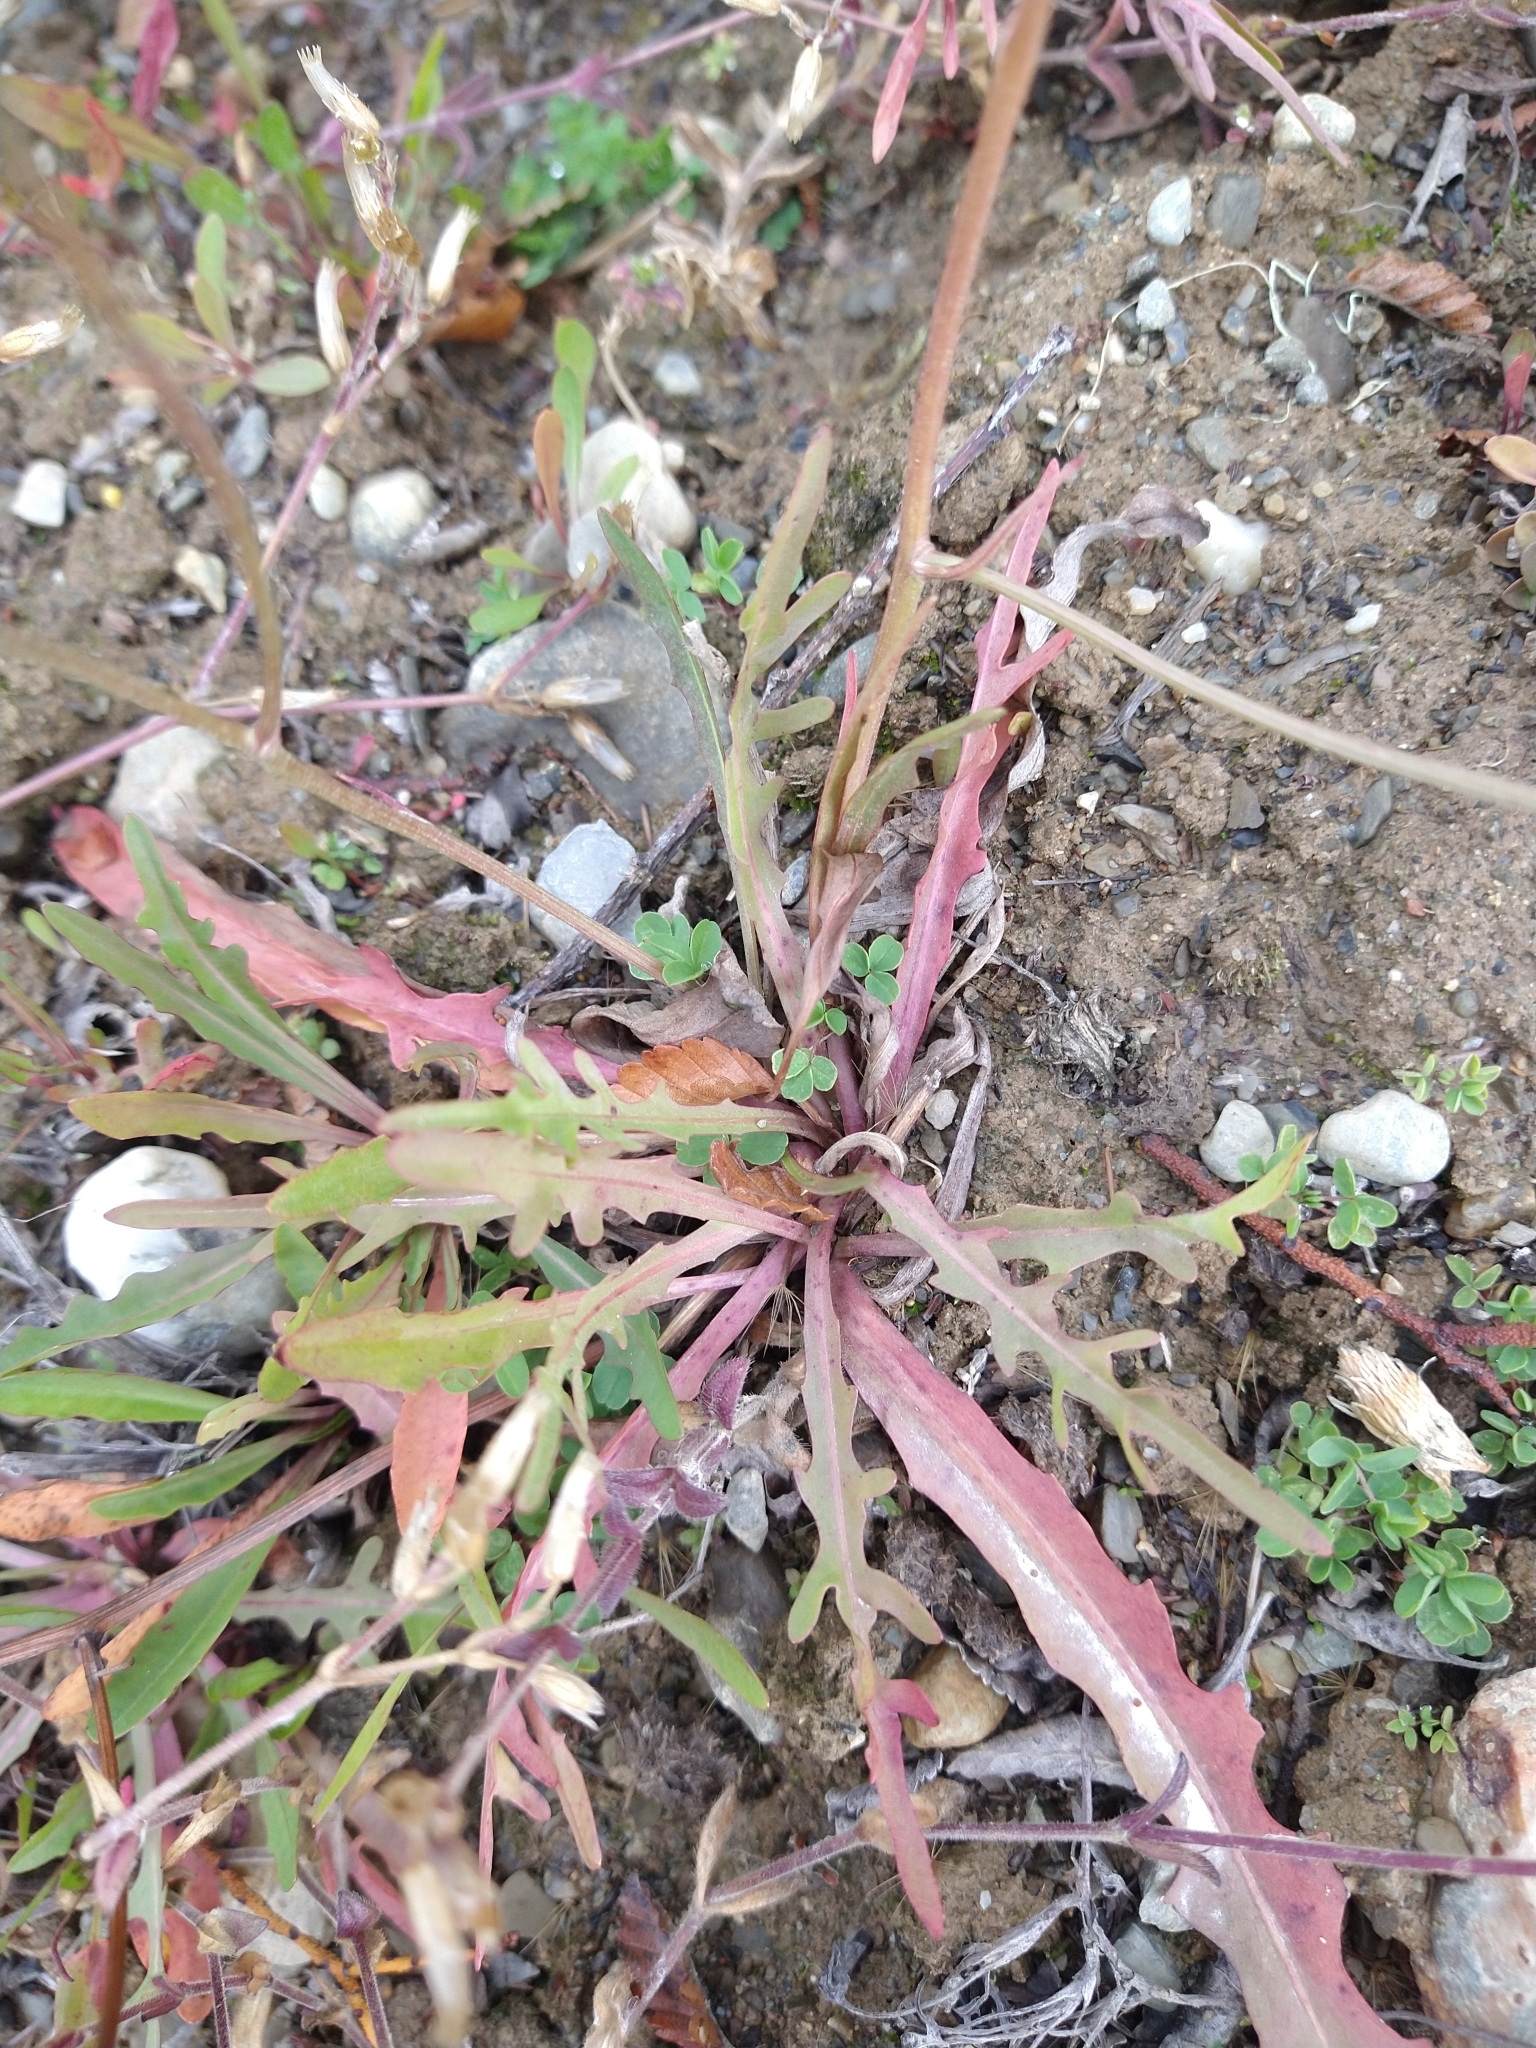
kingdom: Plantae
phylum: Tracheophyta
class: Magnoliopsida
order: Asterales
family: Asteraceae
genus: Hypochaeris
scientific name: Hypochaeris radicata
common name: Flatweed
